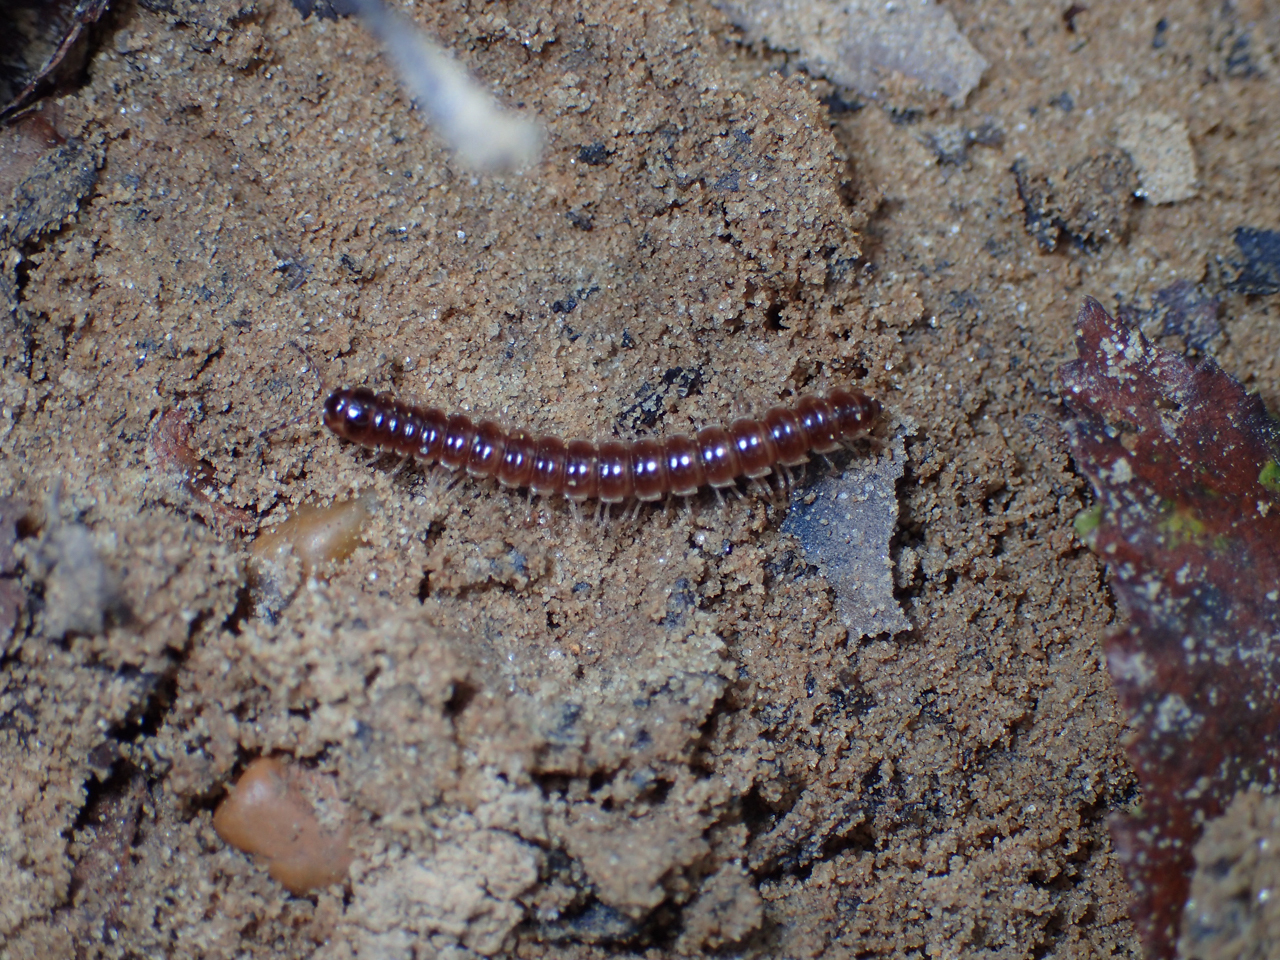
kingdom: Animalia
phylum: Arthropoda
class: Diplopoda
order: Polydesmida
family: Paradoxosomatidae
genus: Oxidus
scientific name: Oxidus gracilis
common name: Greenhouse millipede
